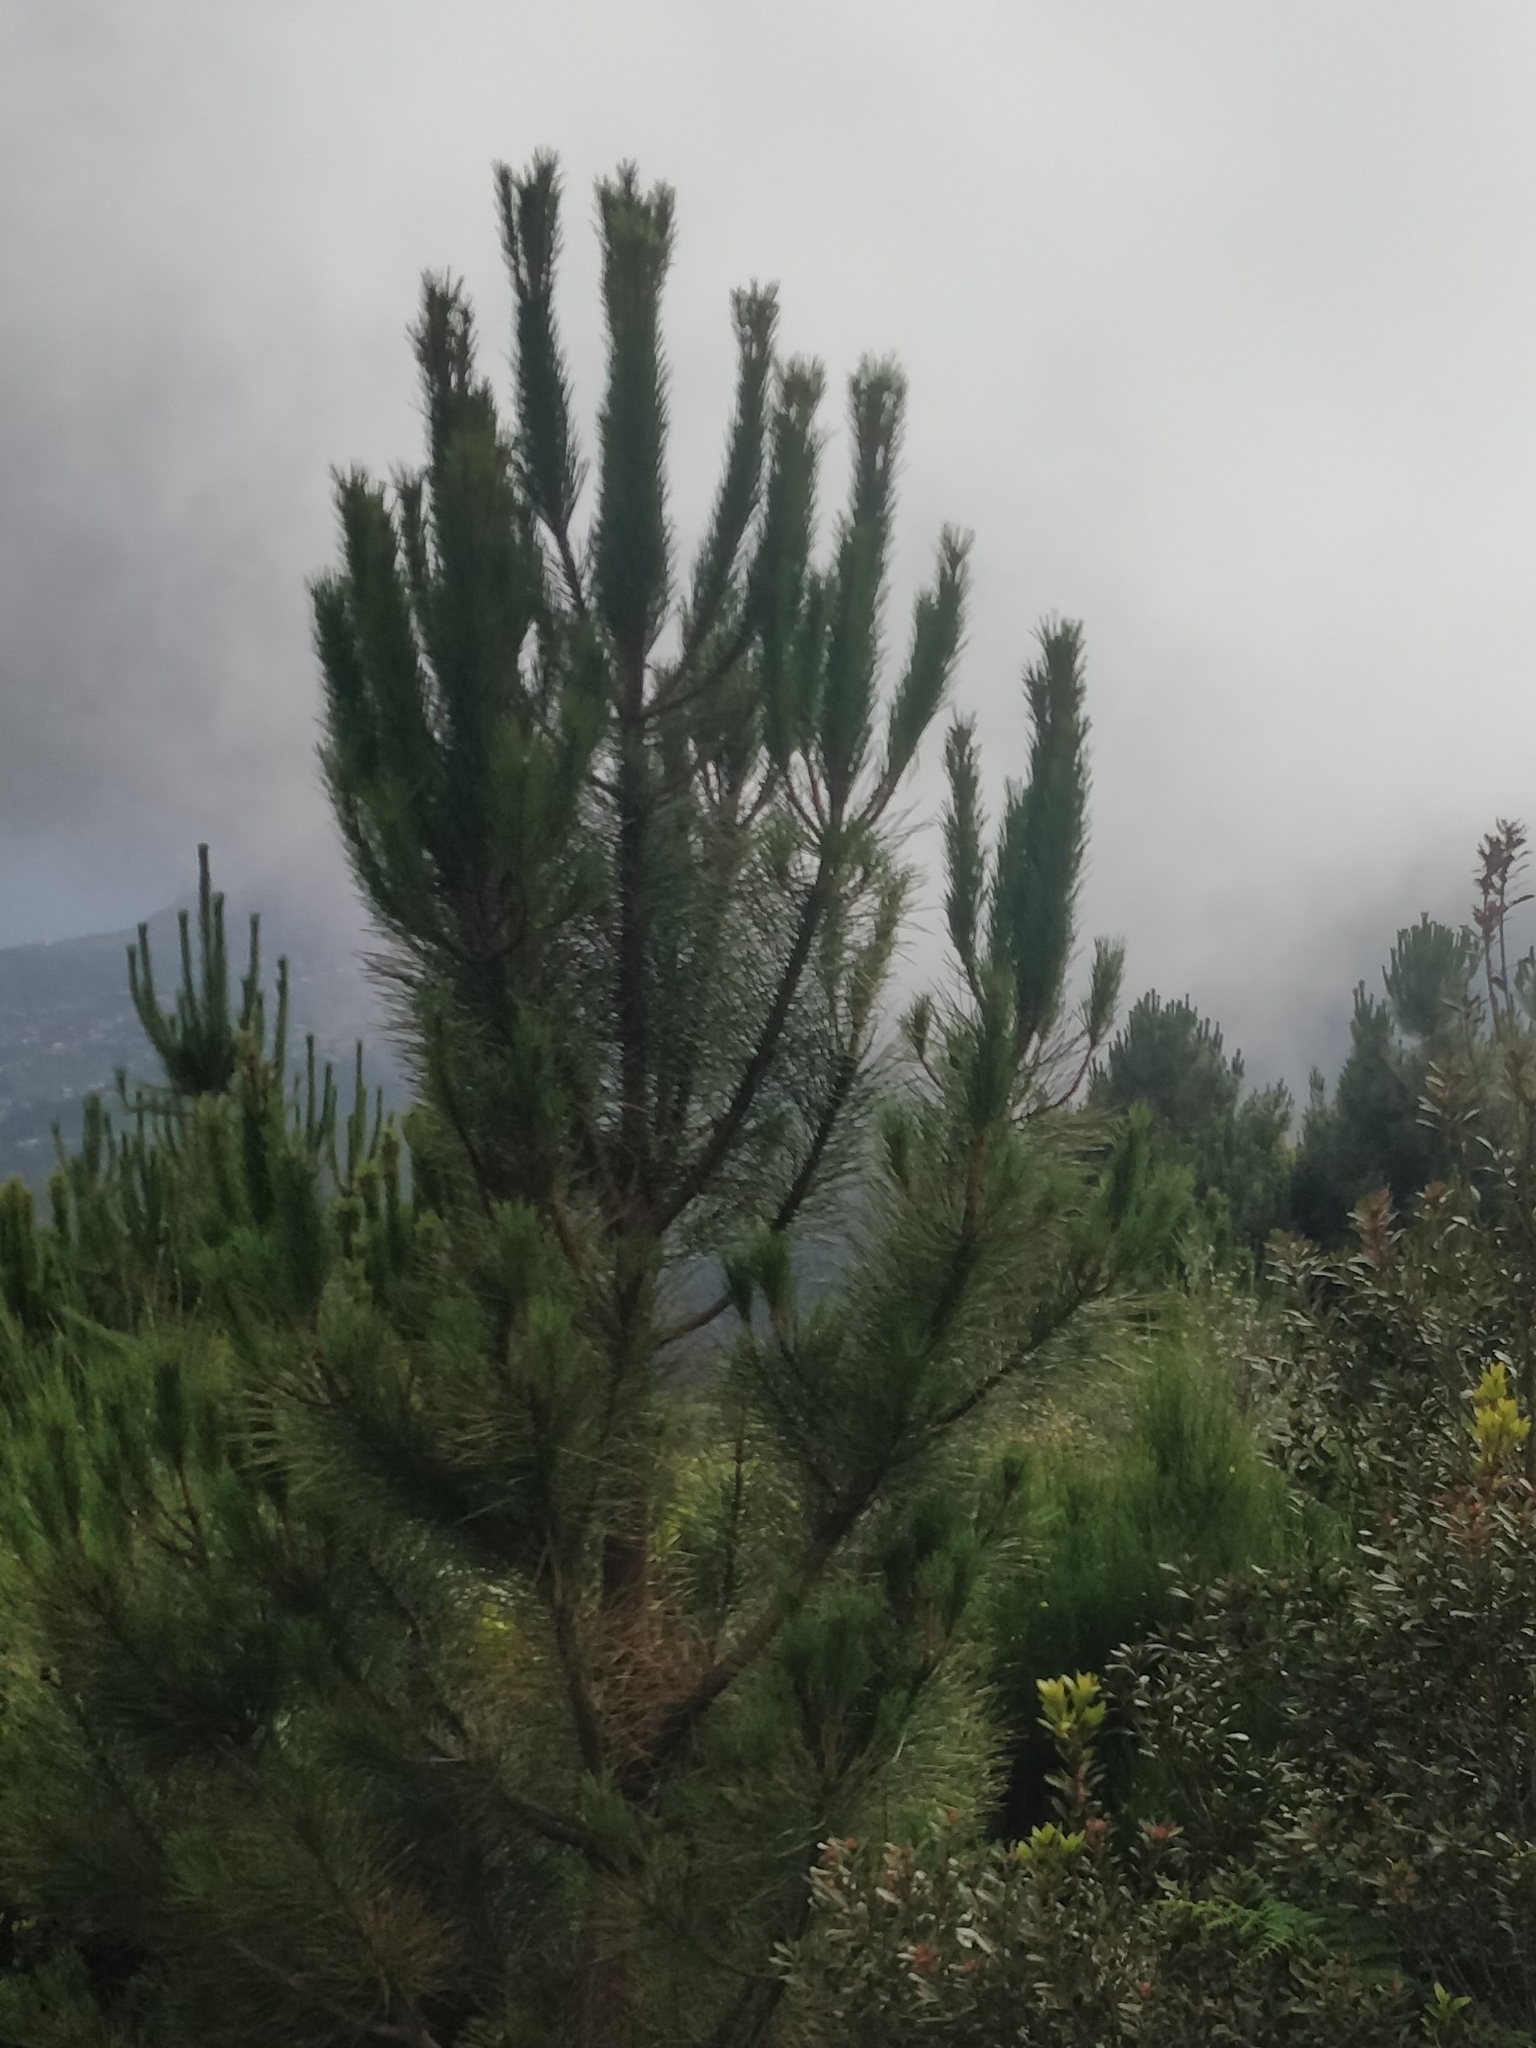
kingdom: Plantae
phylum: Tracheophyta
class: Pinopsida
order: Pinales
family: Pinaceae
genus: Pinus
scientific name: Pinus pinaster
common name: Maritime pine
